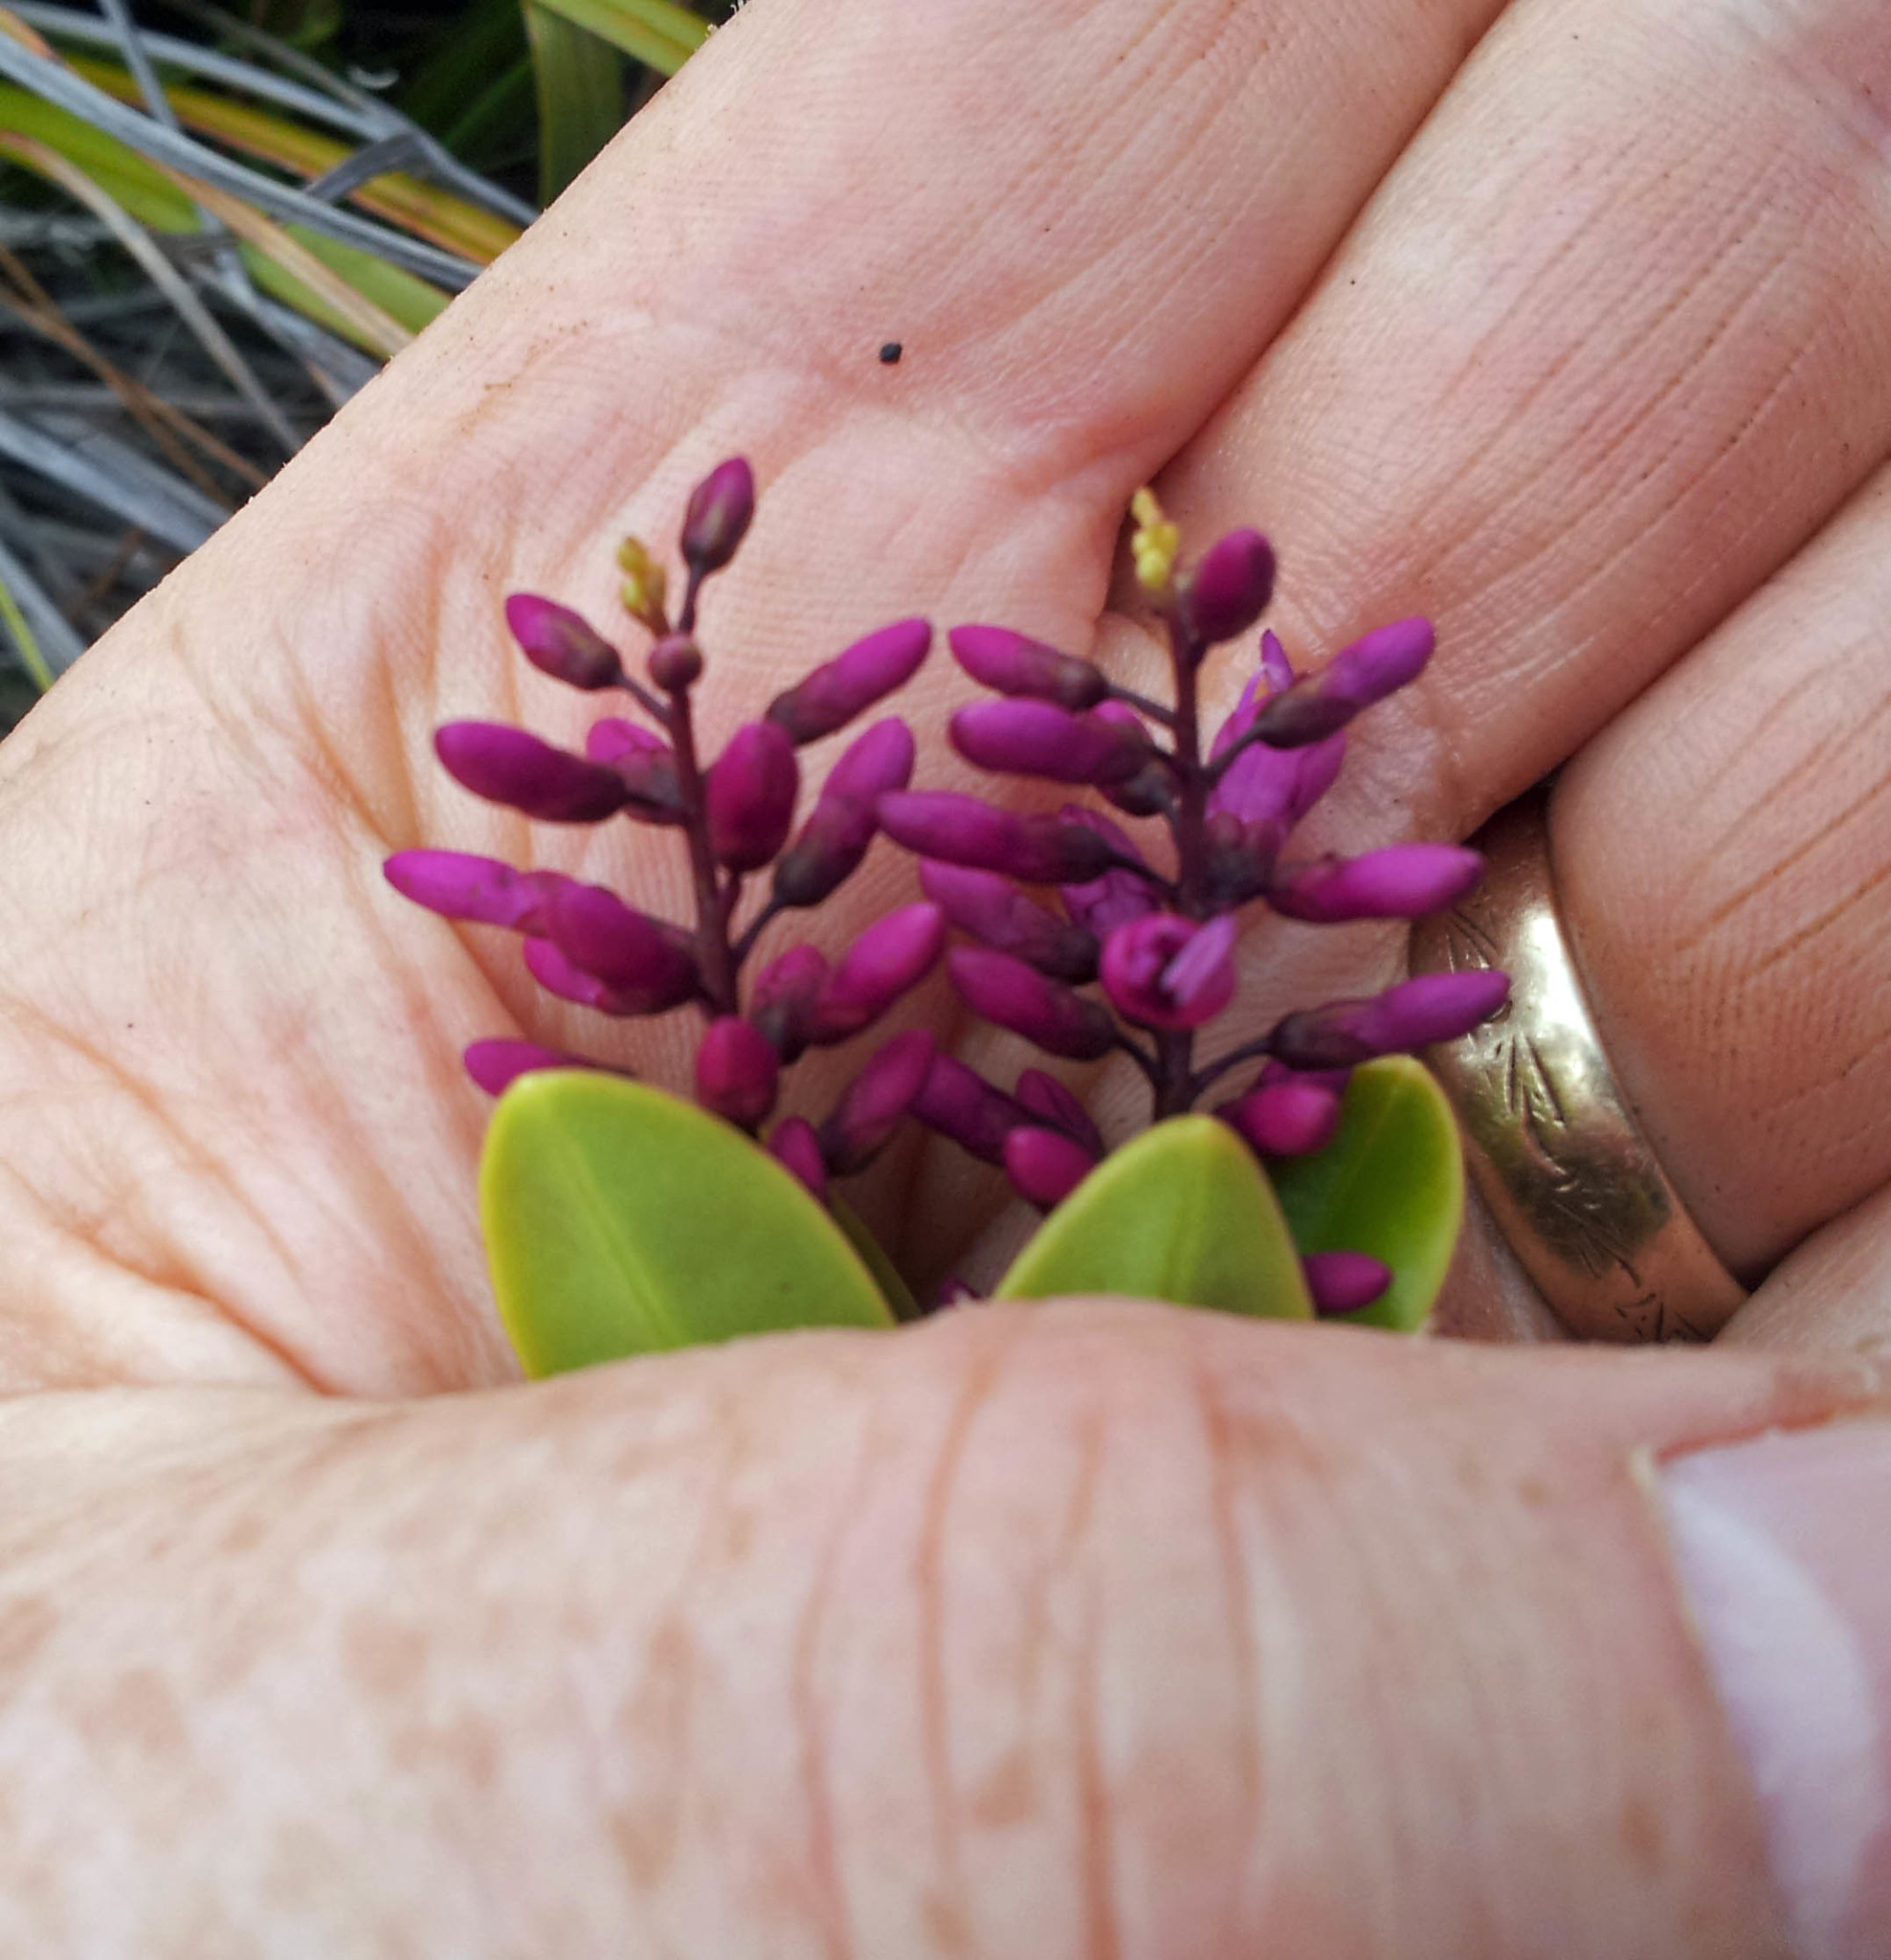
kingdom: Plantae
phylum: Tracheophyta
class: Magnoliopsida
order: Lamiales
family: Plantaginaceae
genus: Veronica
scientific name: Veronica punicea
